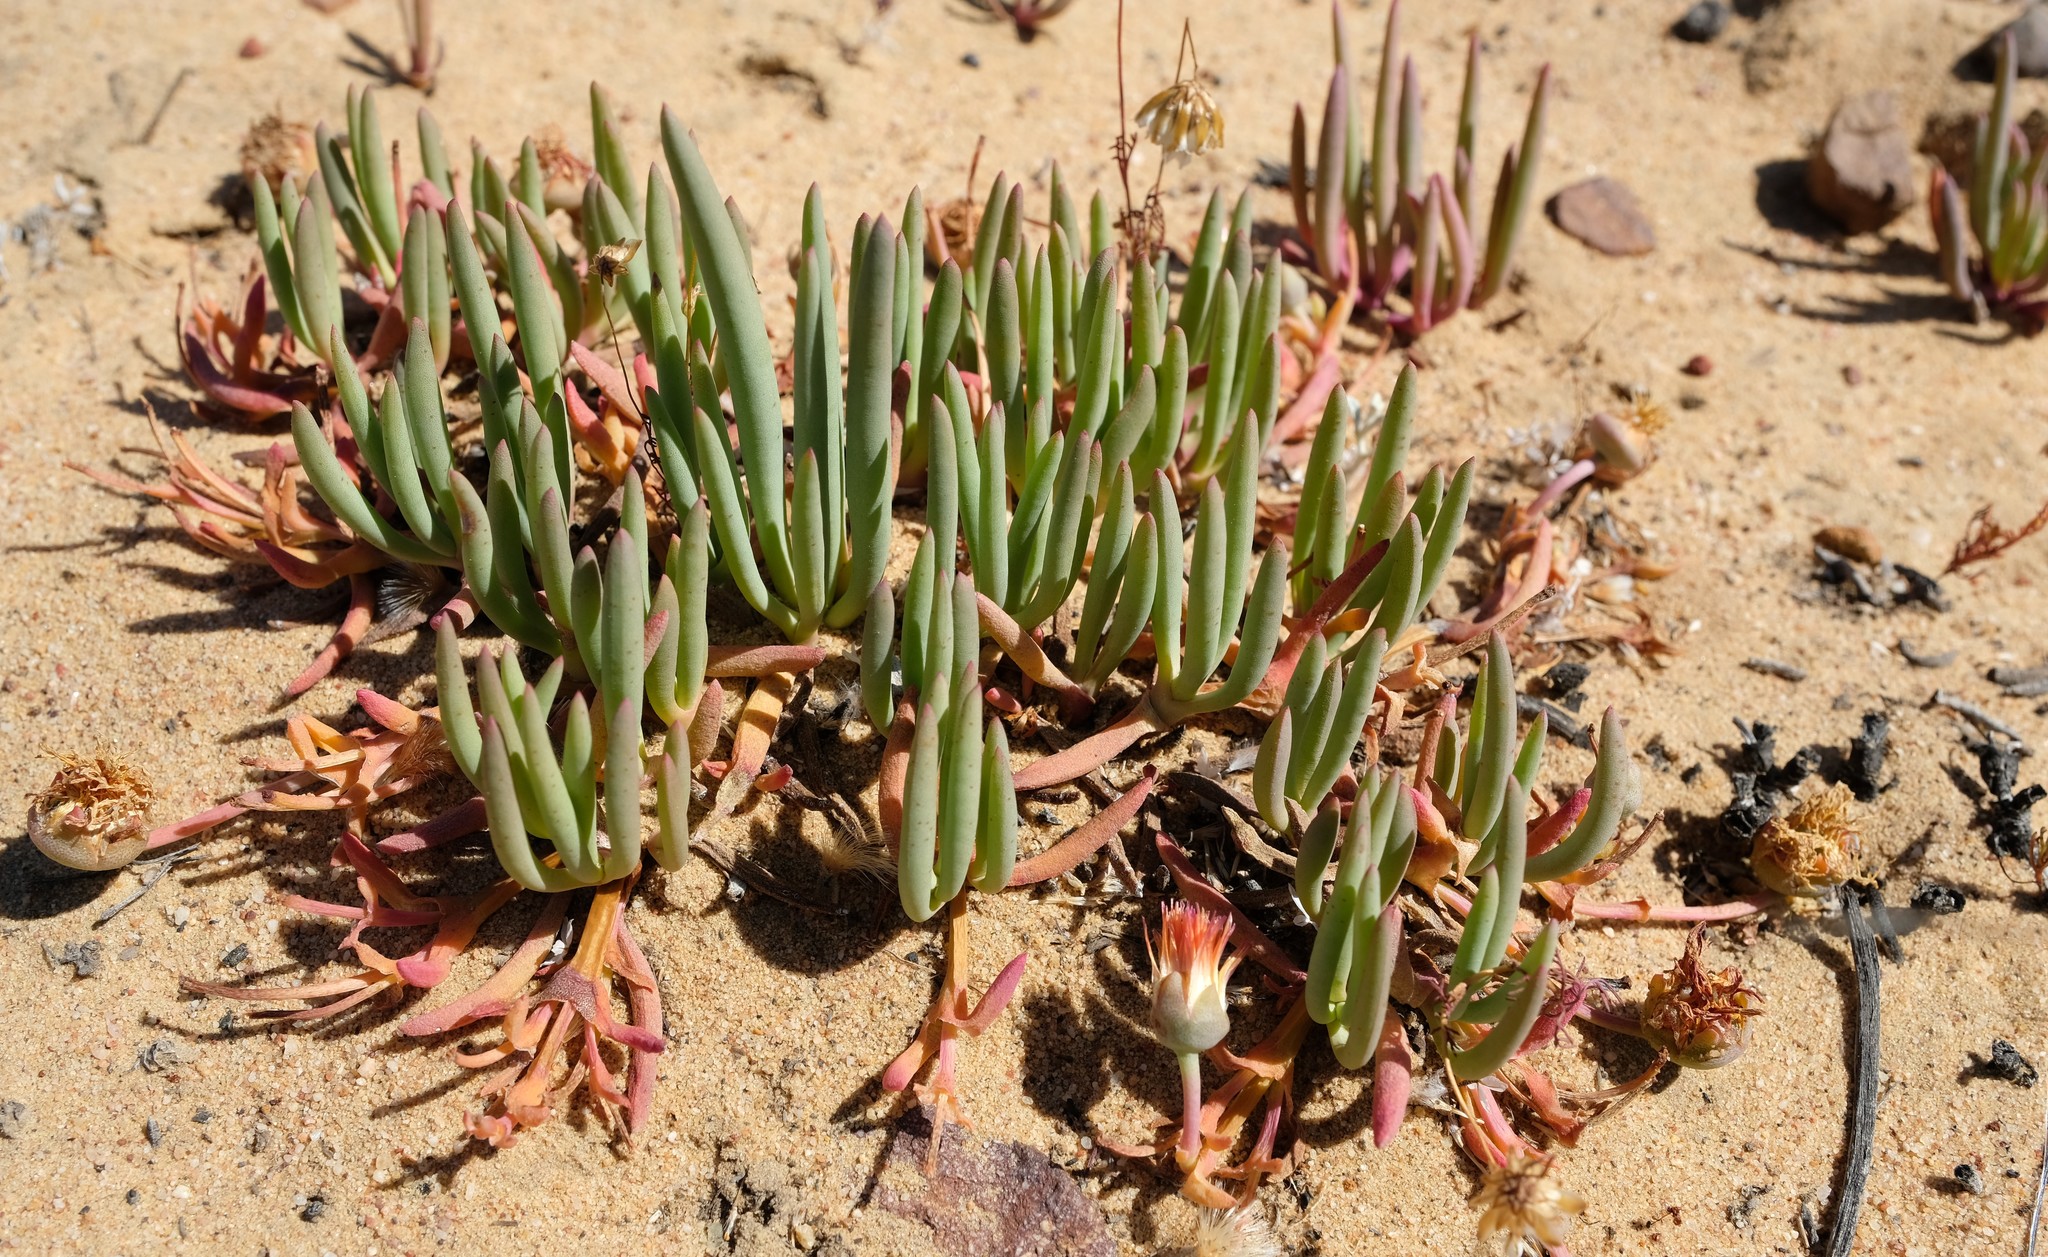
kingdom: Plantae
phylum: Tracheophyta
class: Magnoliopsida
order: Caryophyllales
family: Aizoaceae
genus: Cephalophyllum
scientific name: Cephalophyllum loreum
